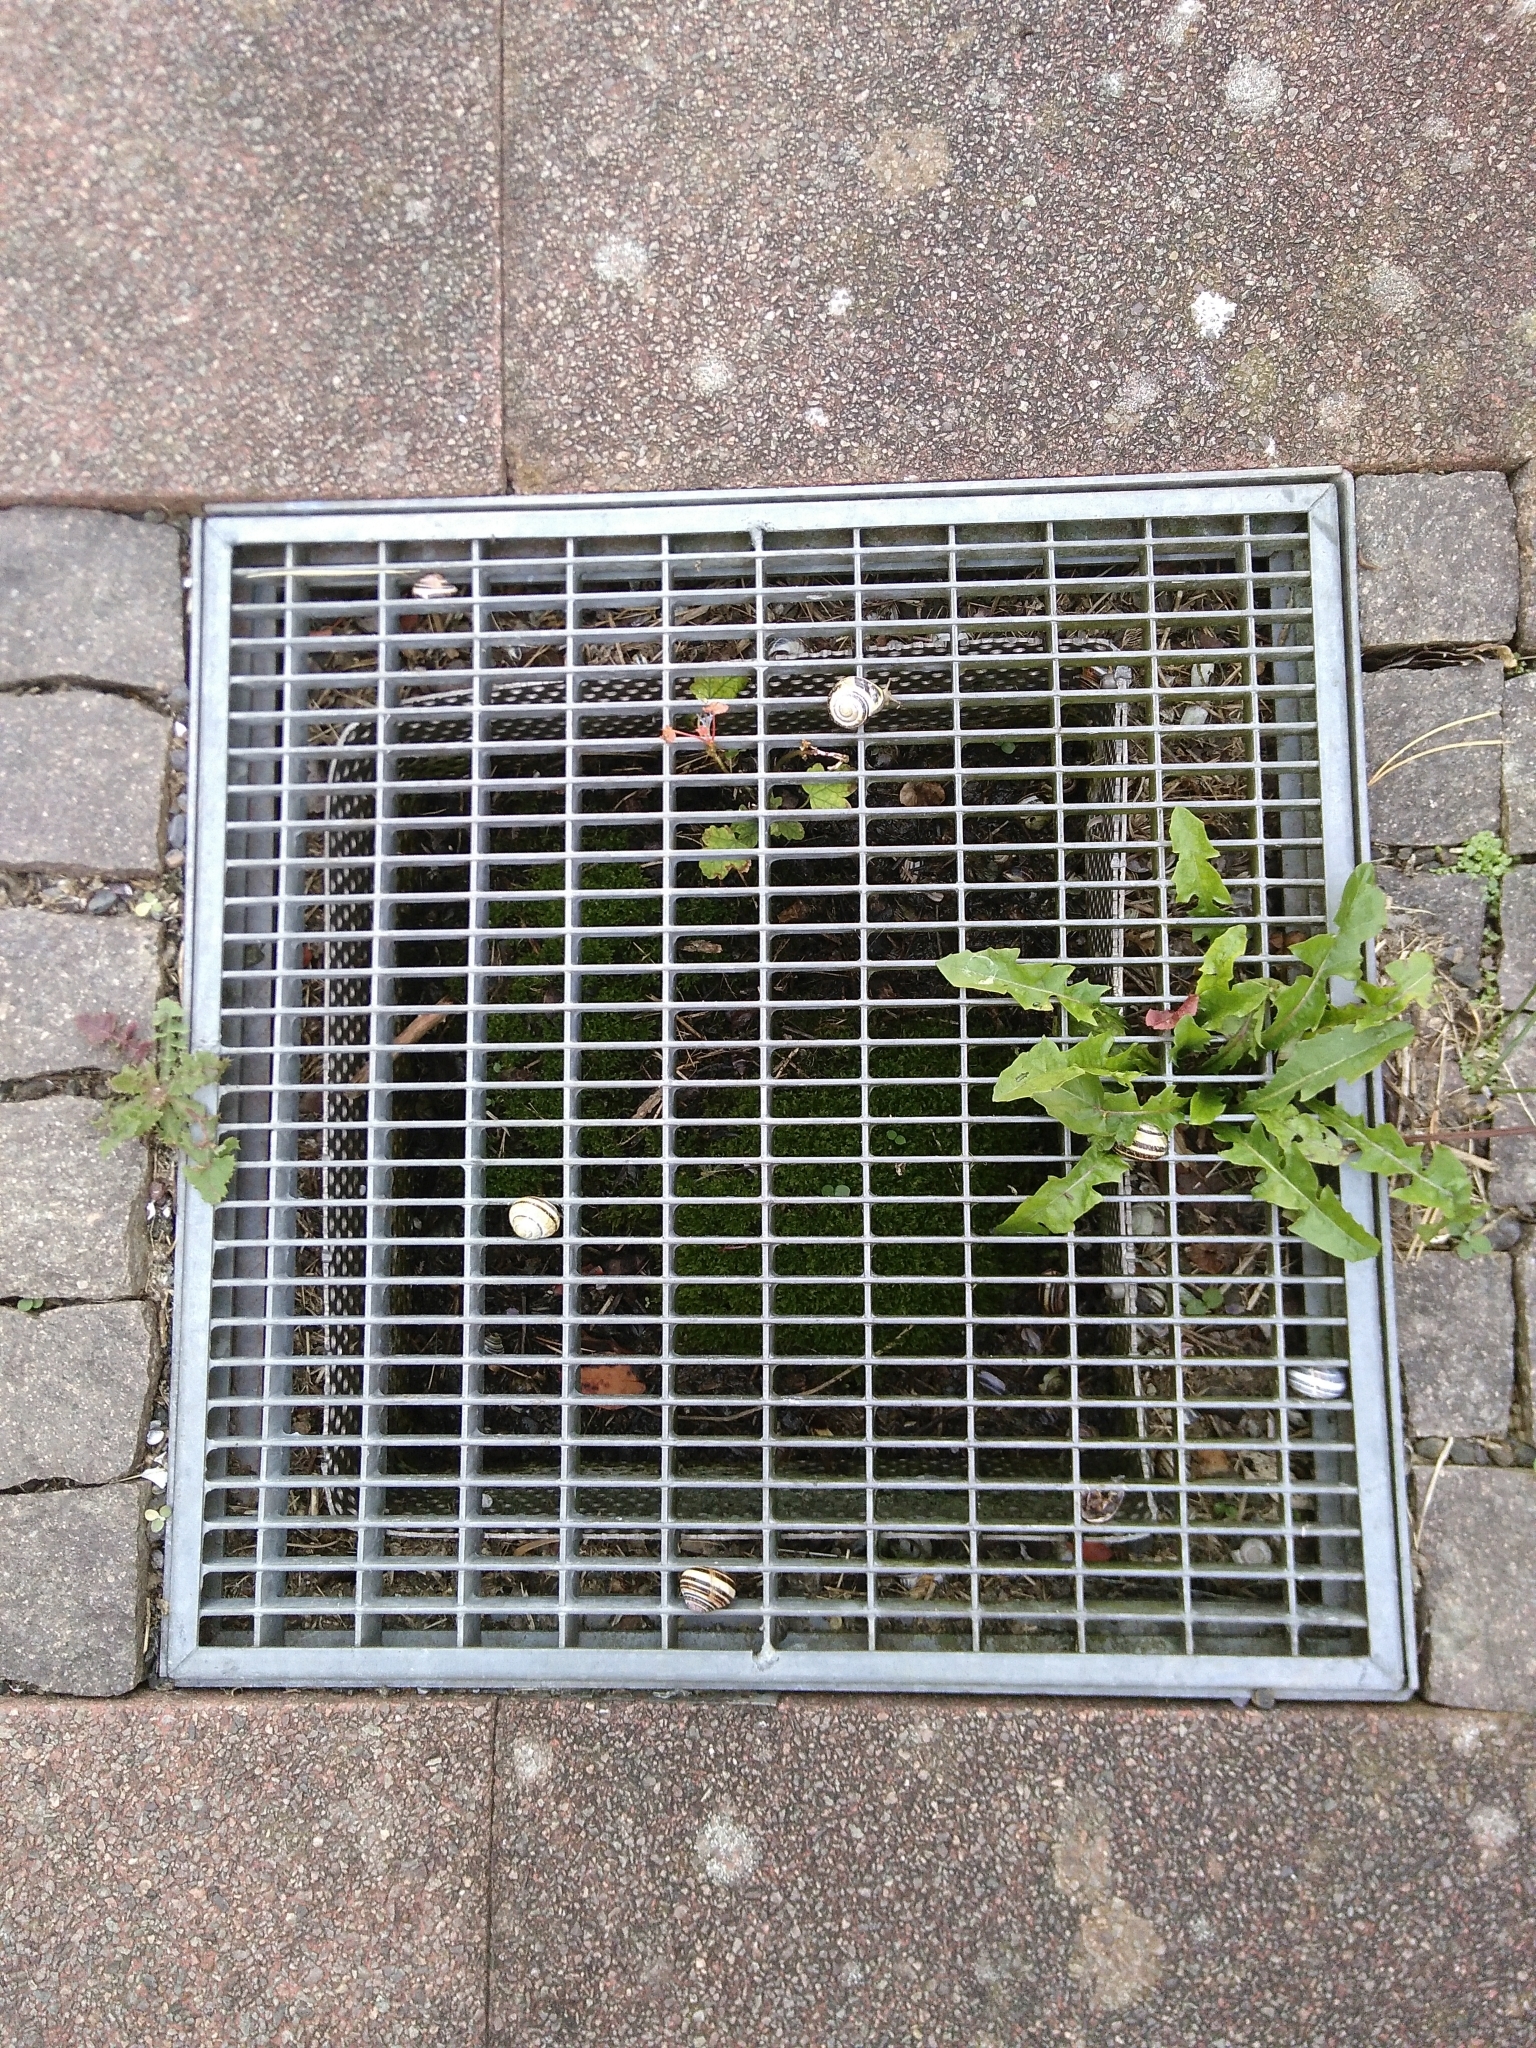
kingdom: Animalia
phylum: Mollusca
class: Gastropoda
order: Stylommatophora
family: Helicidae
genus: Cepaea
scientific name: Cepaea nemoralis
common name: Grovesnail
